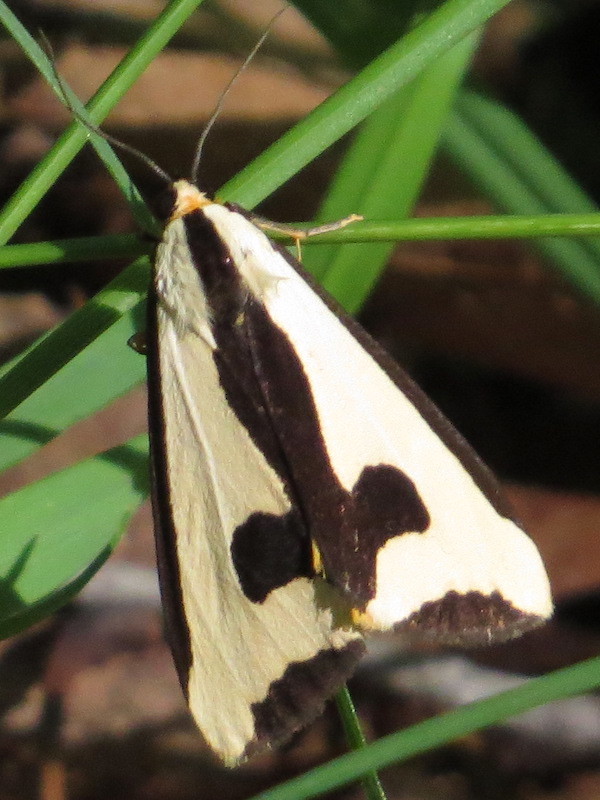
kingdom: Animalia
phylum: Arthropoda
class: Insecta
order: Lepidoptera
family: Erebidae
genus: Haploa
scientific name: Haploa clymene
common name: Clymene moth
